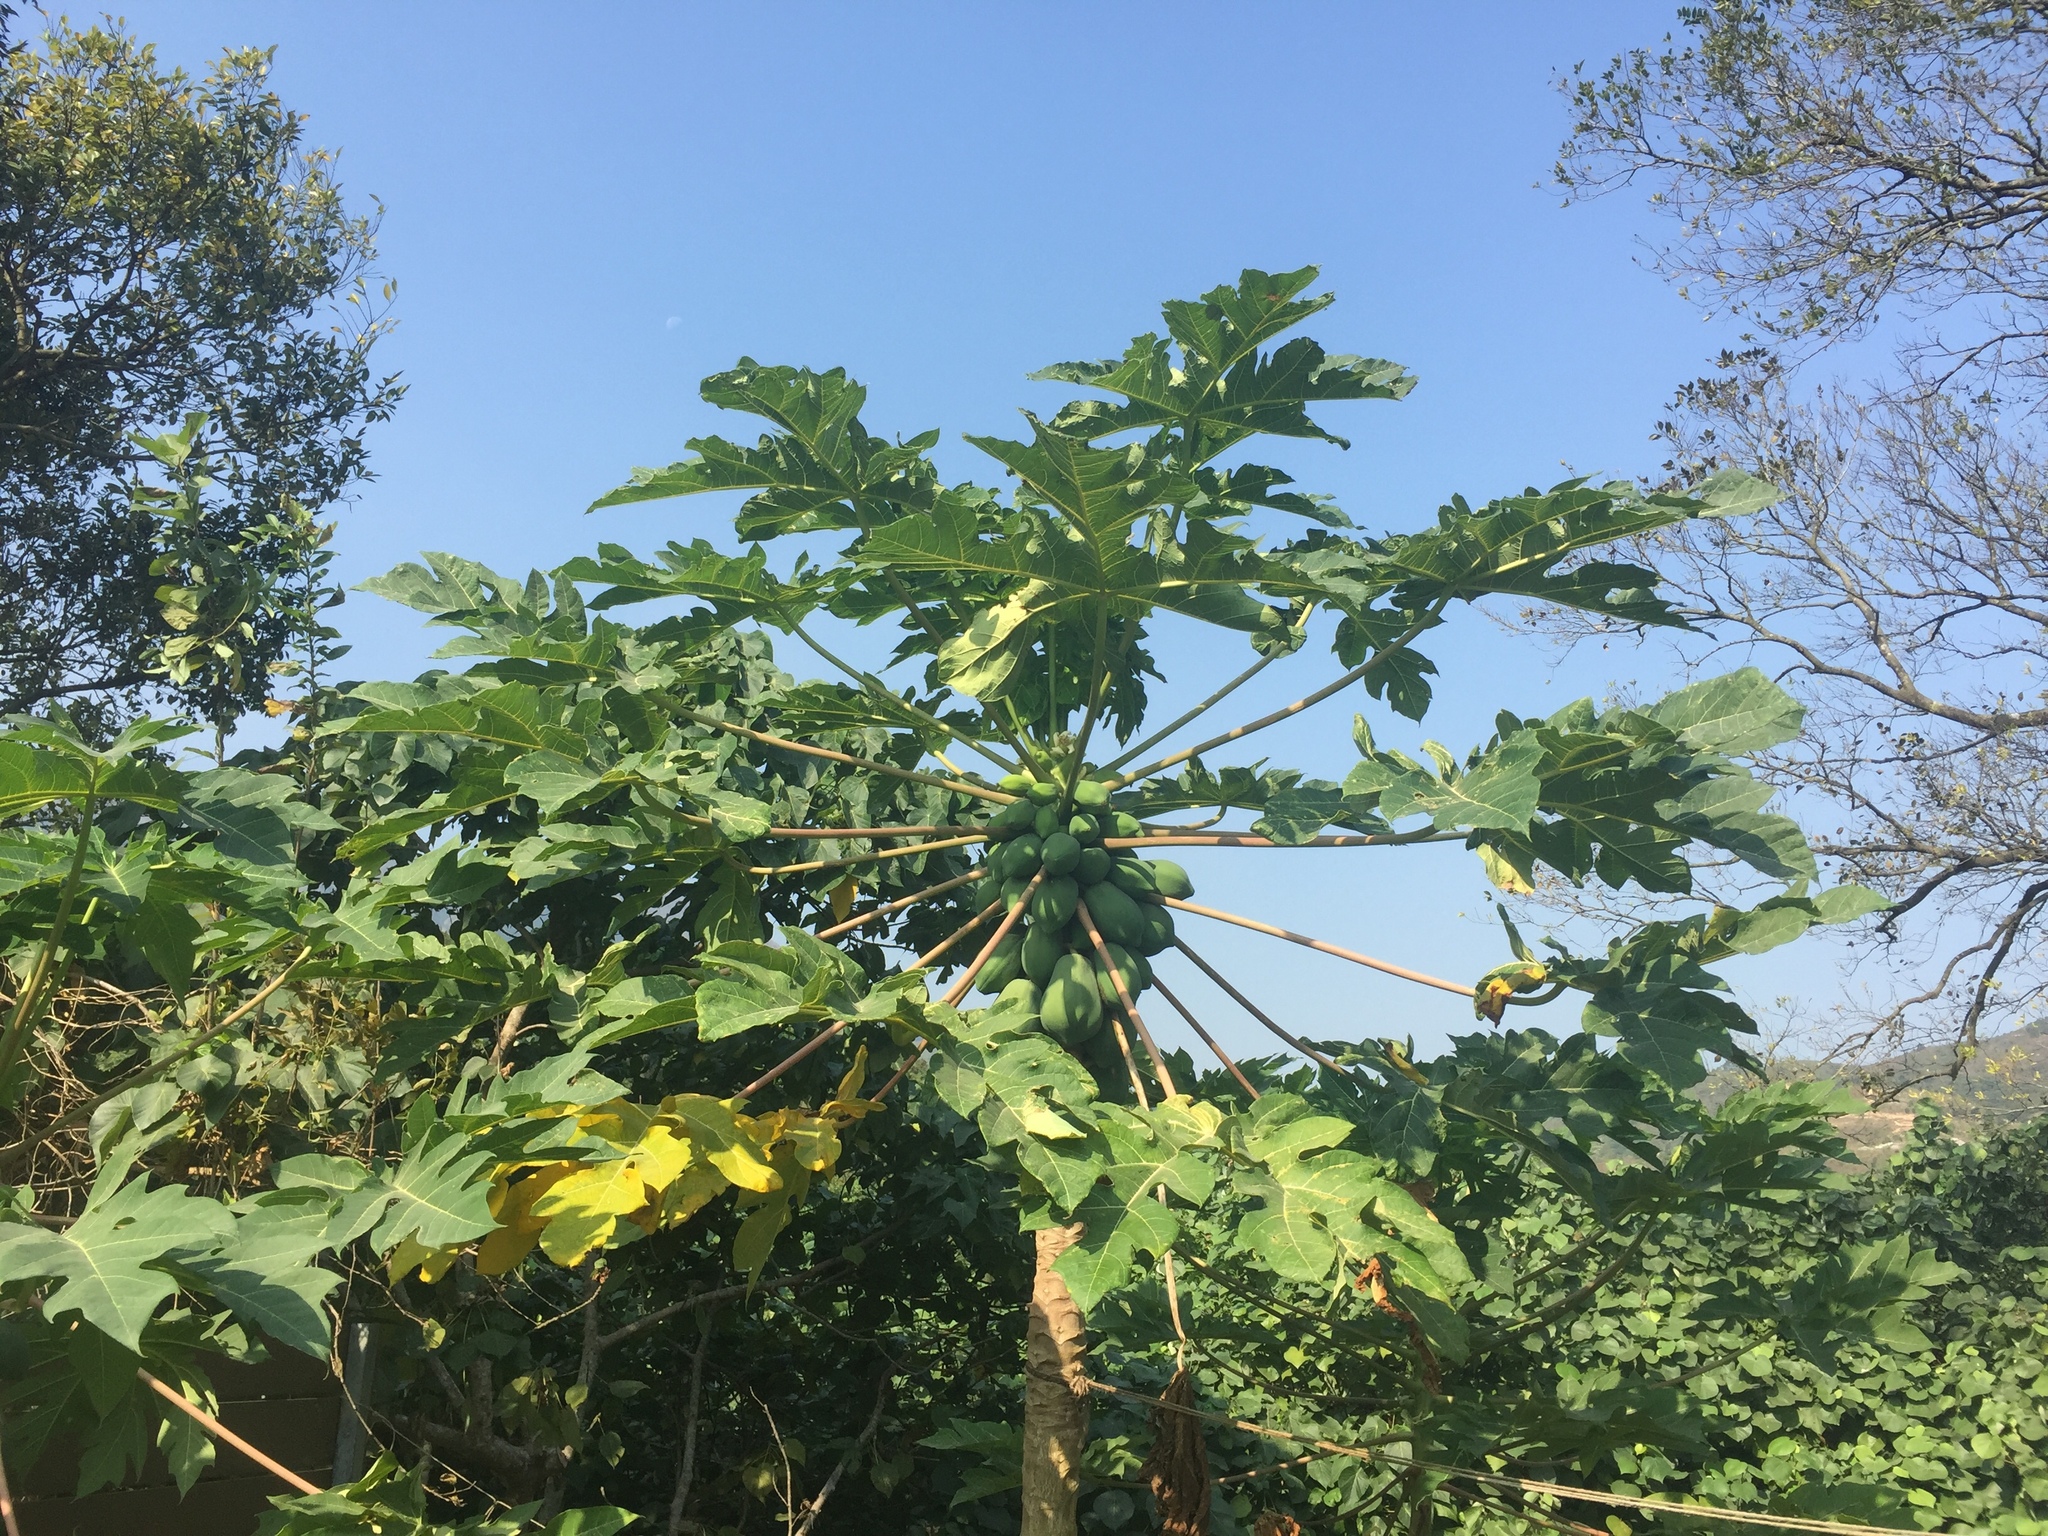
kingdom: Plantae
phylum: Tracheophyta
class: Magnoliopsida
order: Brassicales
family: Caricaceae
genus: Carica
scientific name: Carica papaya
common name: Papaya
